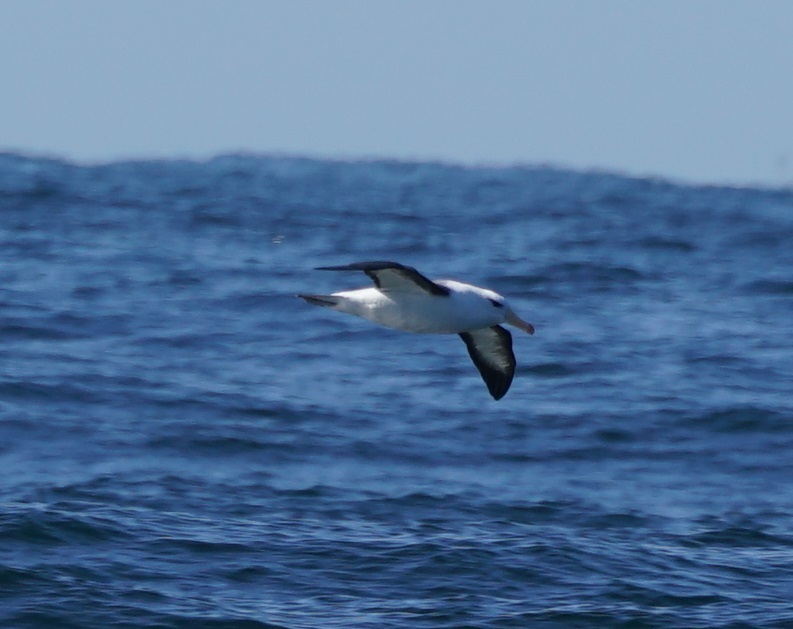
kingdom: Animalia
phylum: Chordata
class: Aves
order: Procellariiformes
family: Diomedeidae
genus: Thalassarche
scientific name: Thalassarche melanophris
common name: Black-browed albatross
